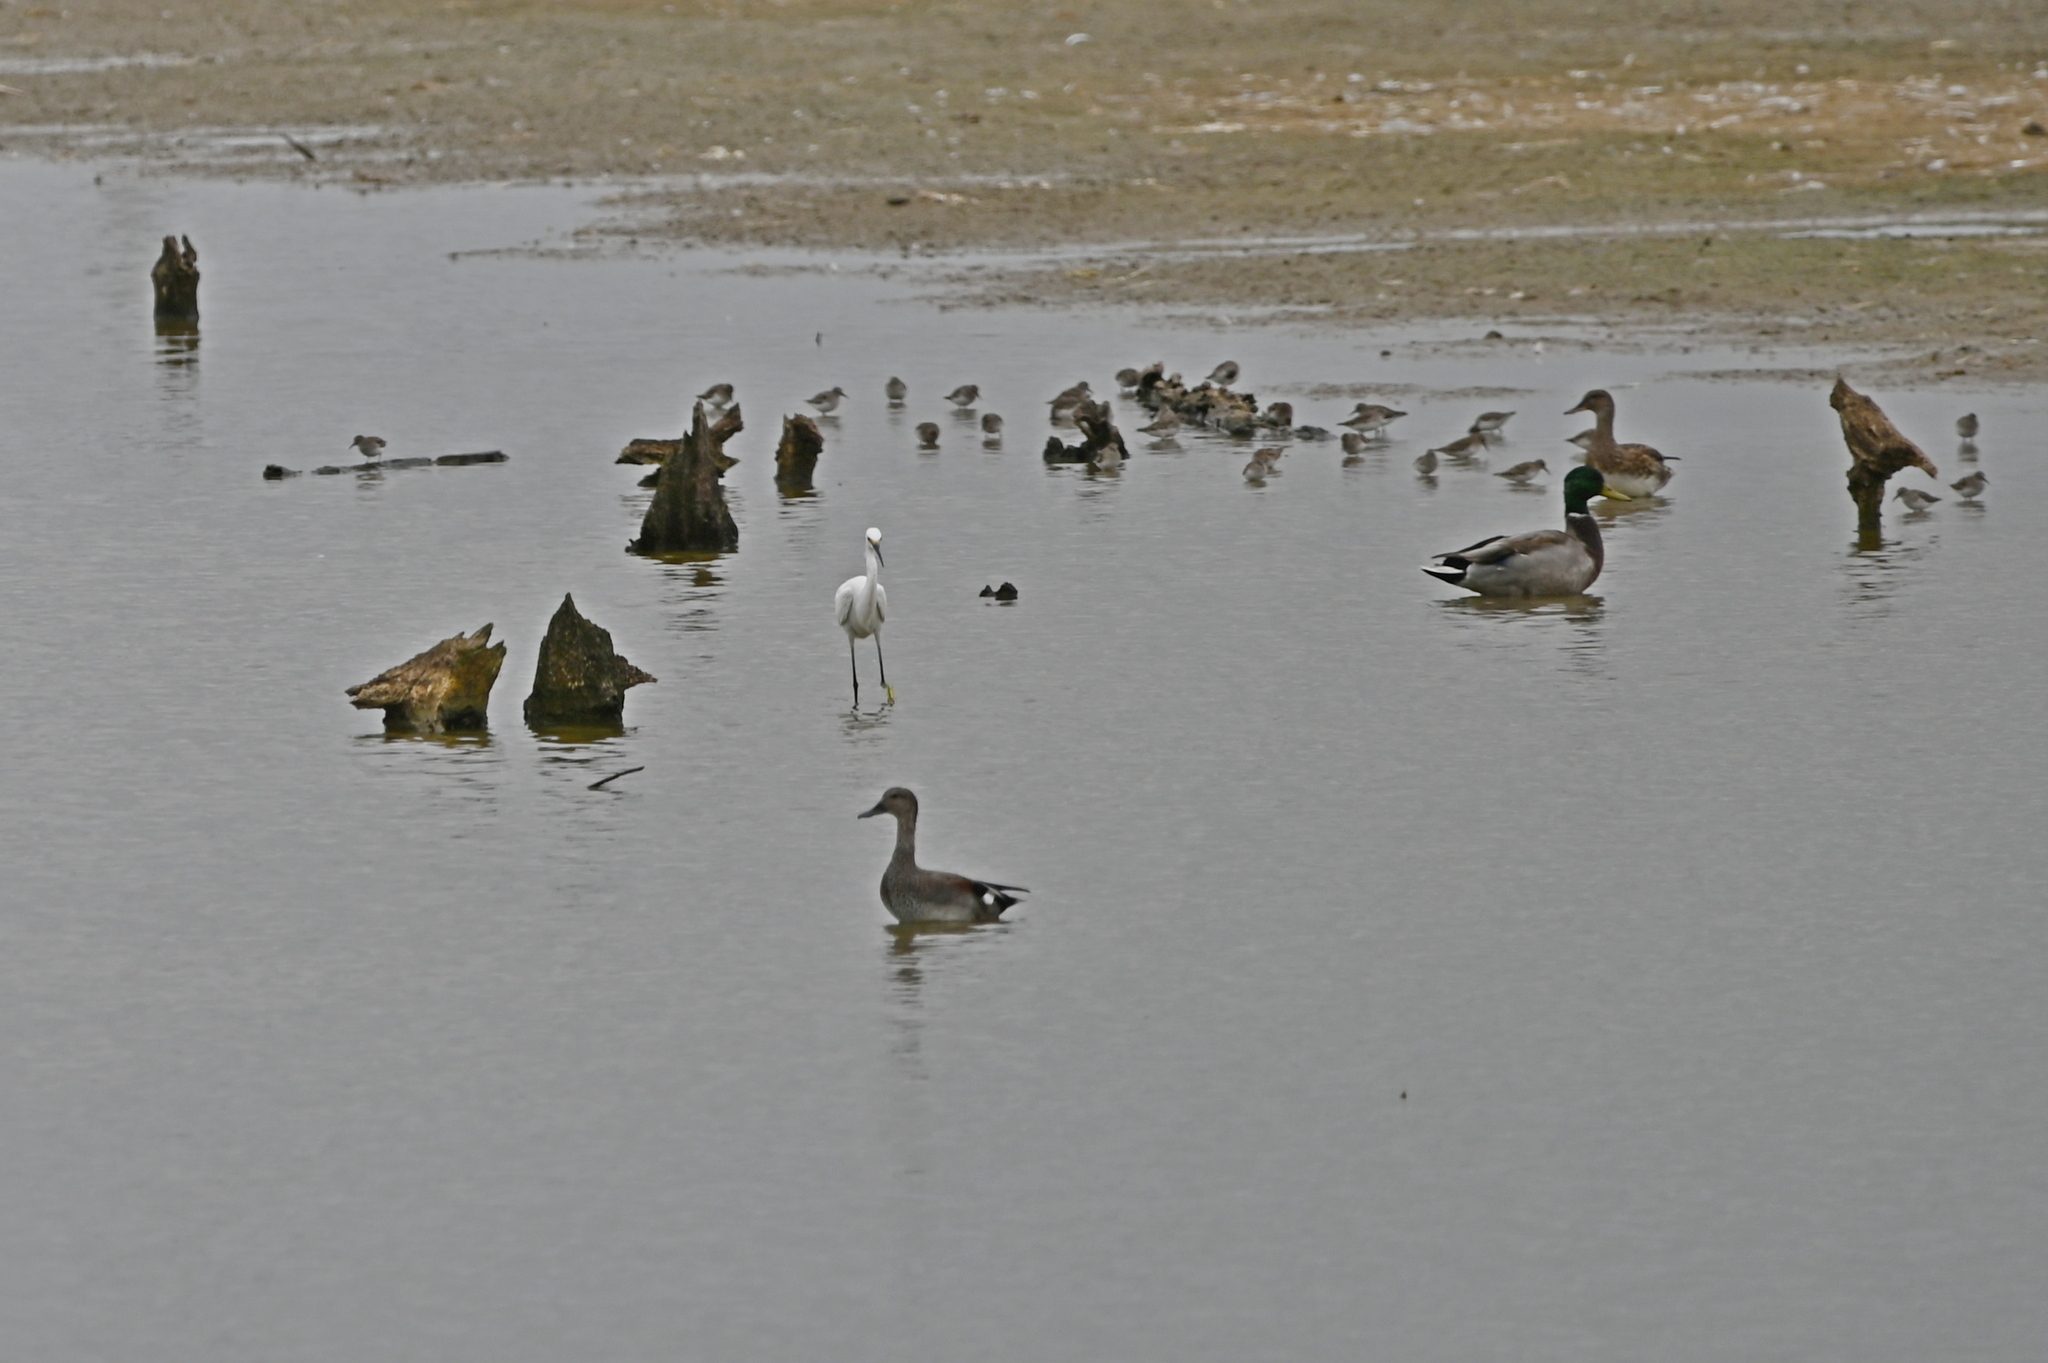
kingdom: Animalia
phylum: Chordata
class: Aves
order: Anseriformes
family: Anatidae
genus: Mareca
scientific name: Mareca strepera
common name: Gadwall
